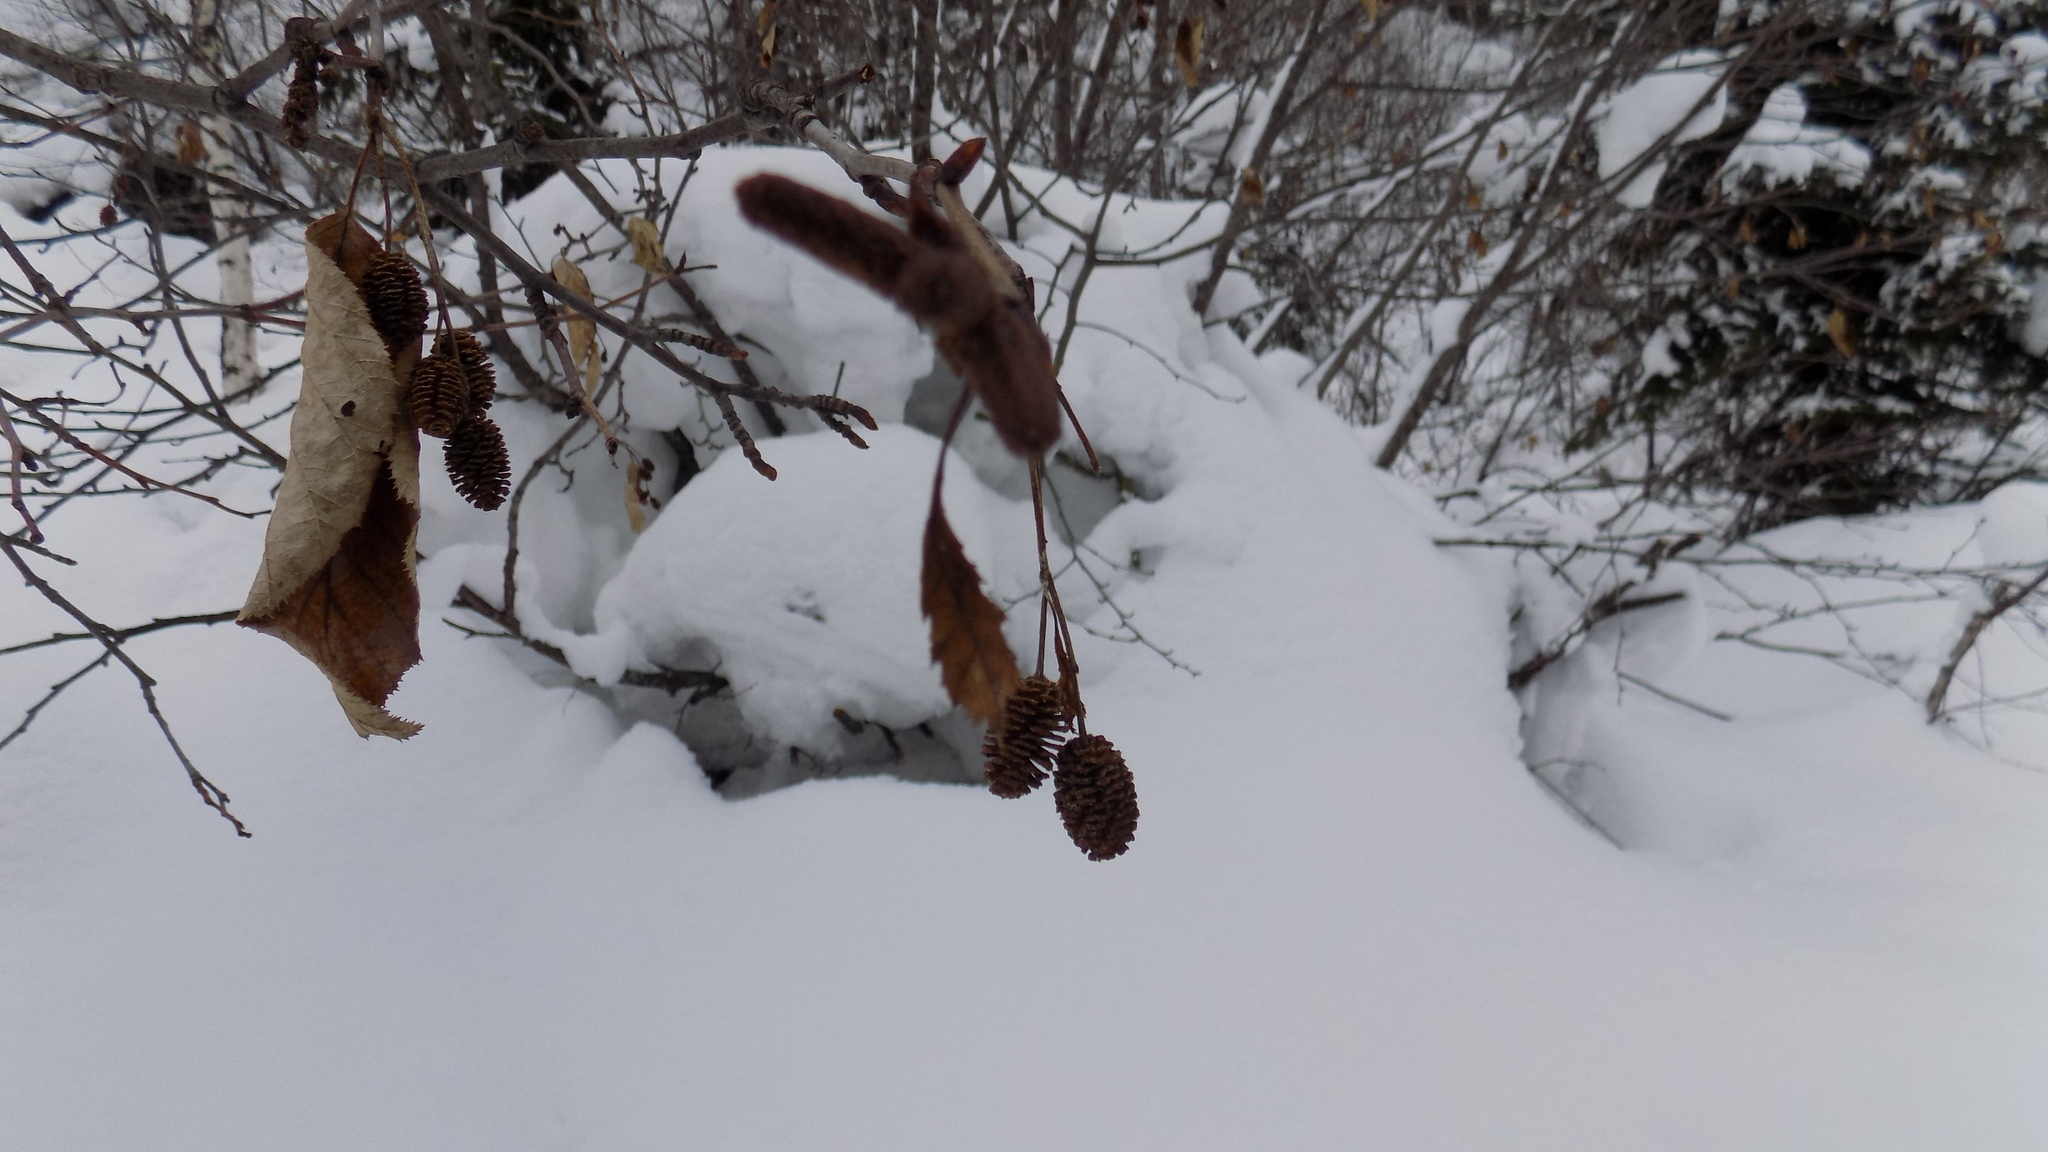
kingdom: Plantae
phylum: Tracheophyta
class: Magnoliopsida
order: Fagales
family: Betulaceae
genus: Alnus
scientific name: Alnus alnobetula
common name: Green alder
